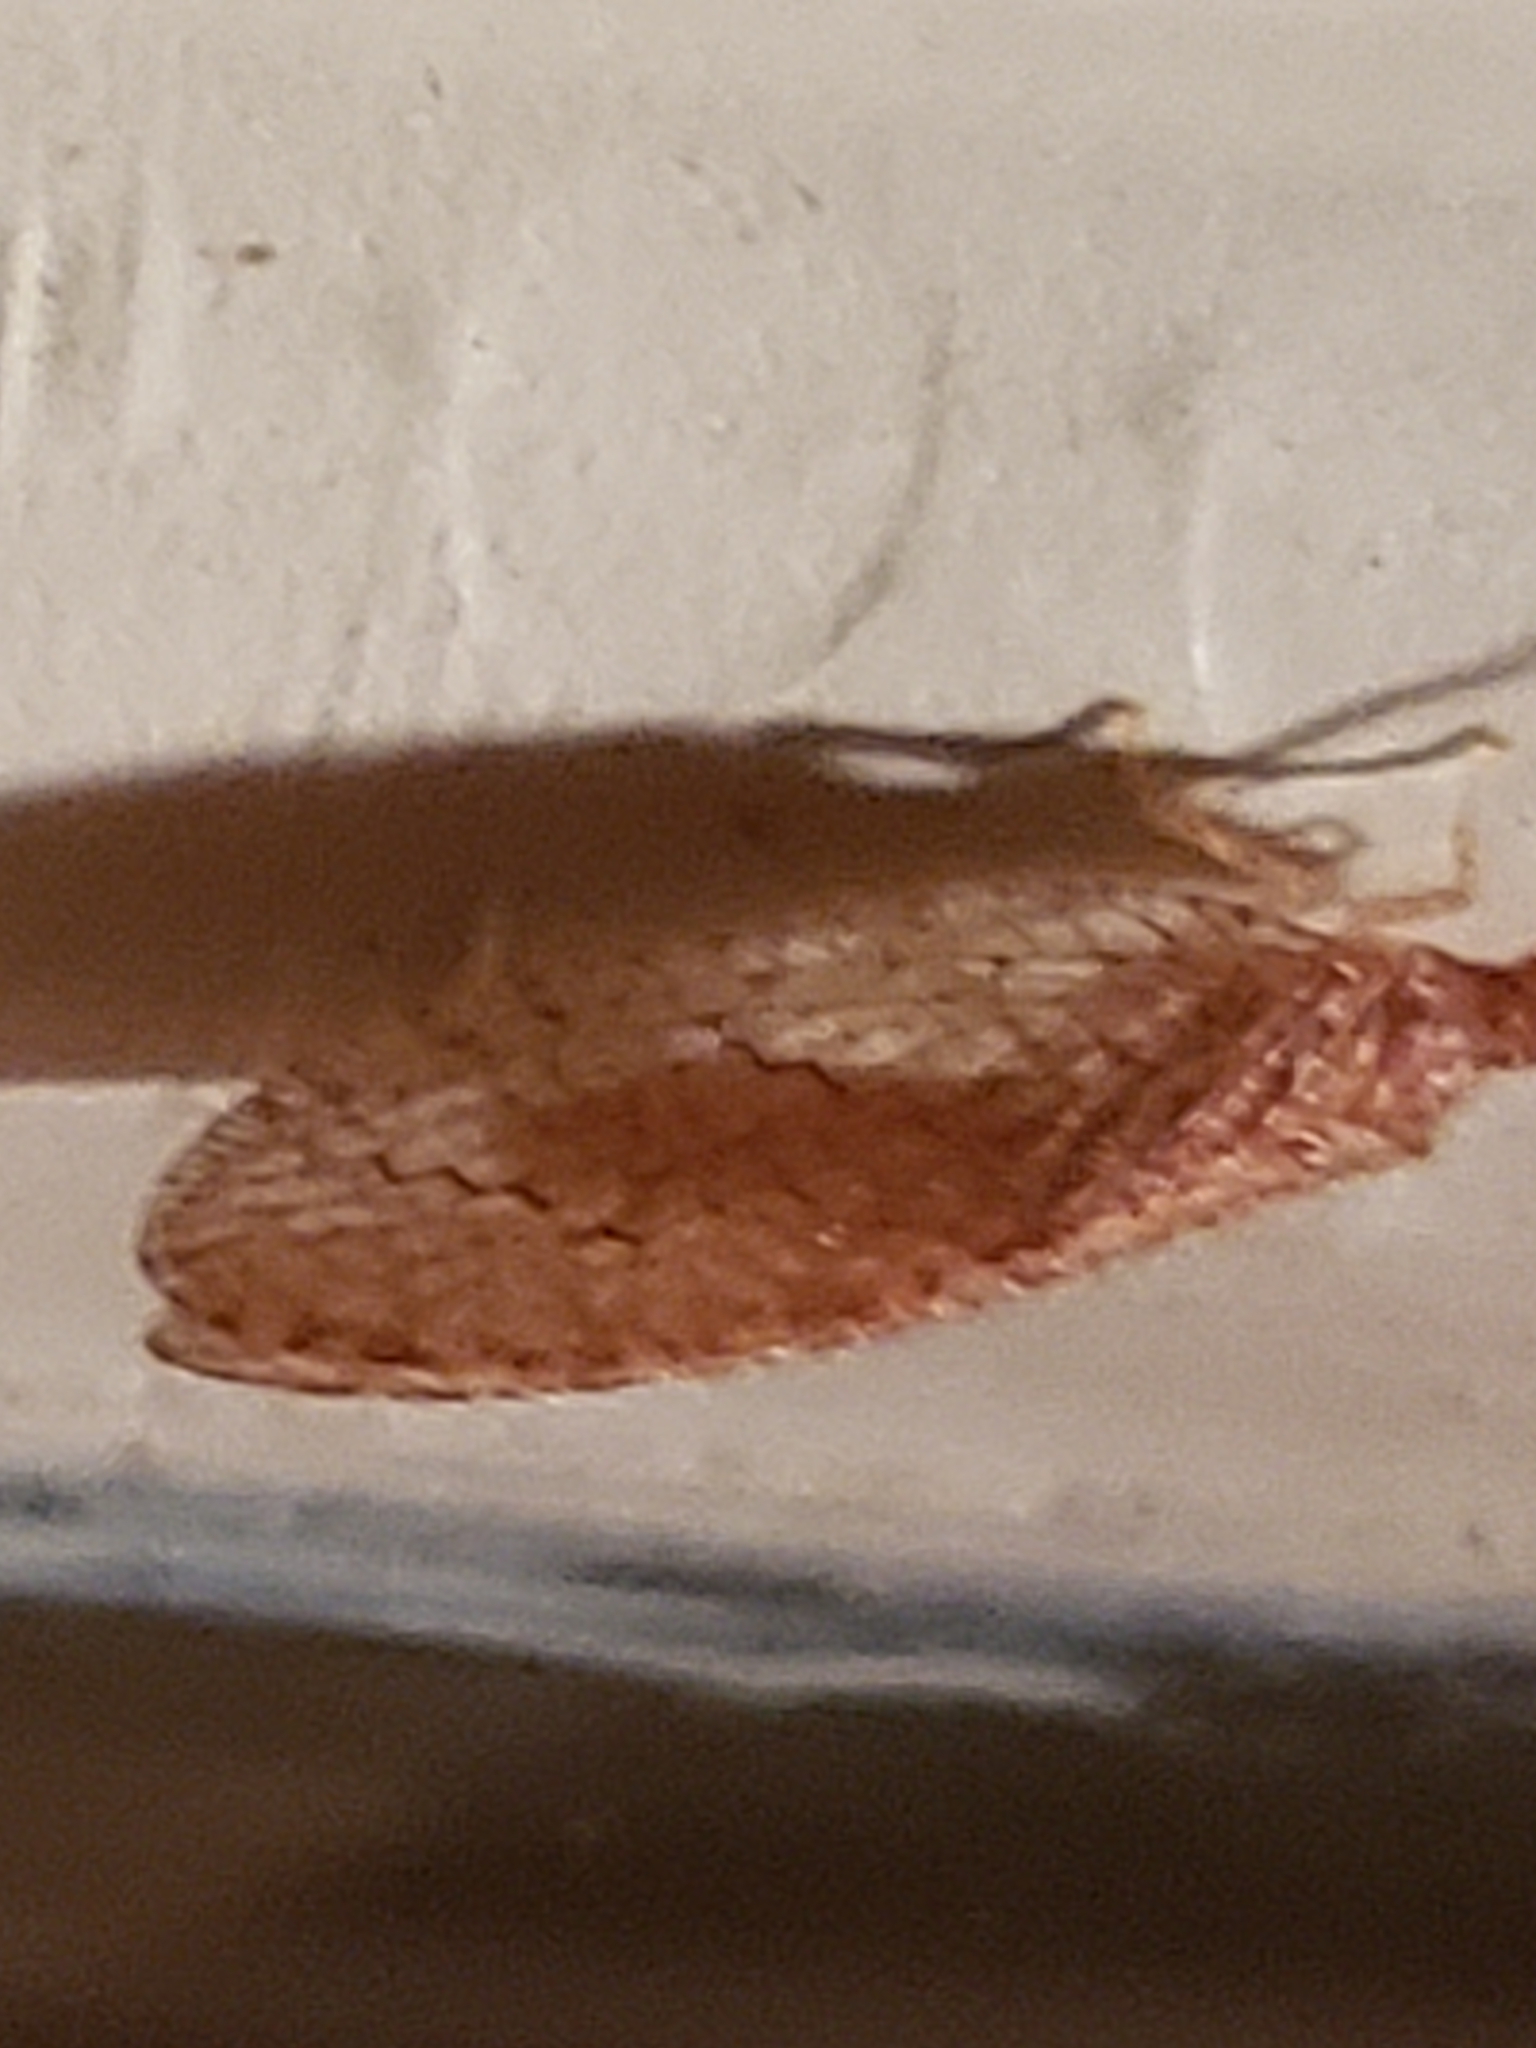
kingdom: Animalia
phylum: Arthropoda
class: Insecta
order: Neuroptera
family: Hemerobiidae
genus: Micromus
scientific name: Micromus posticus
